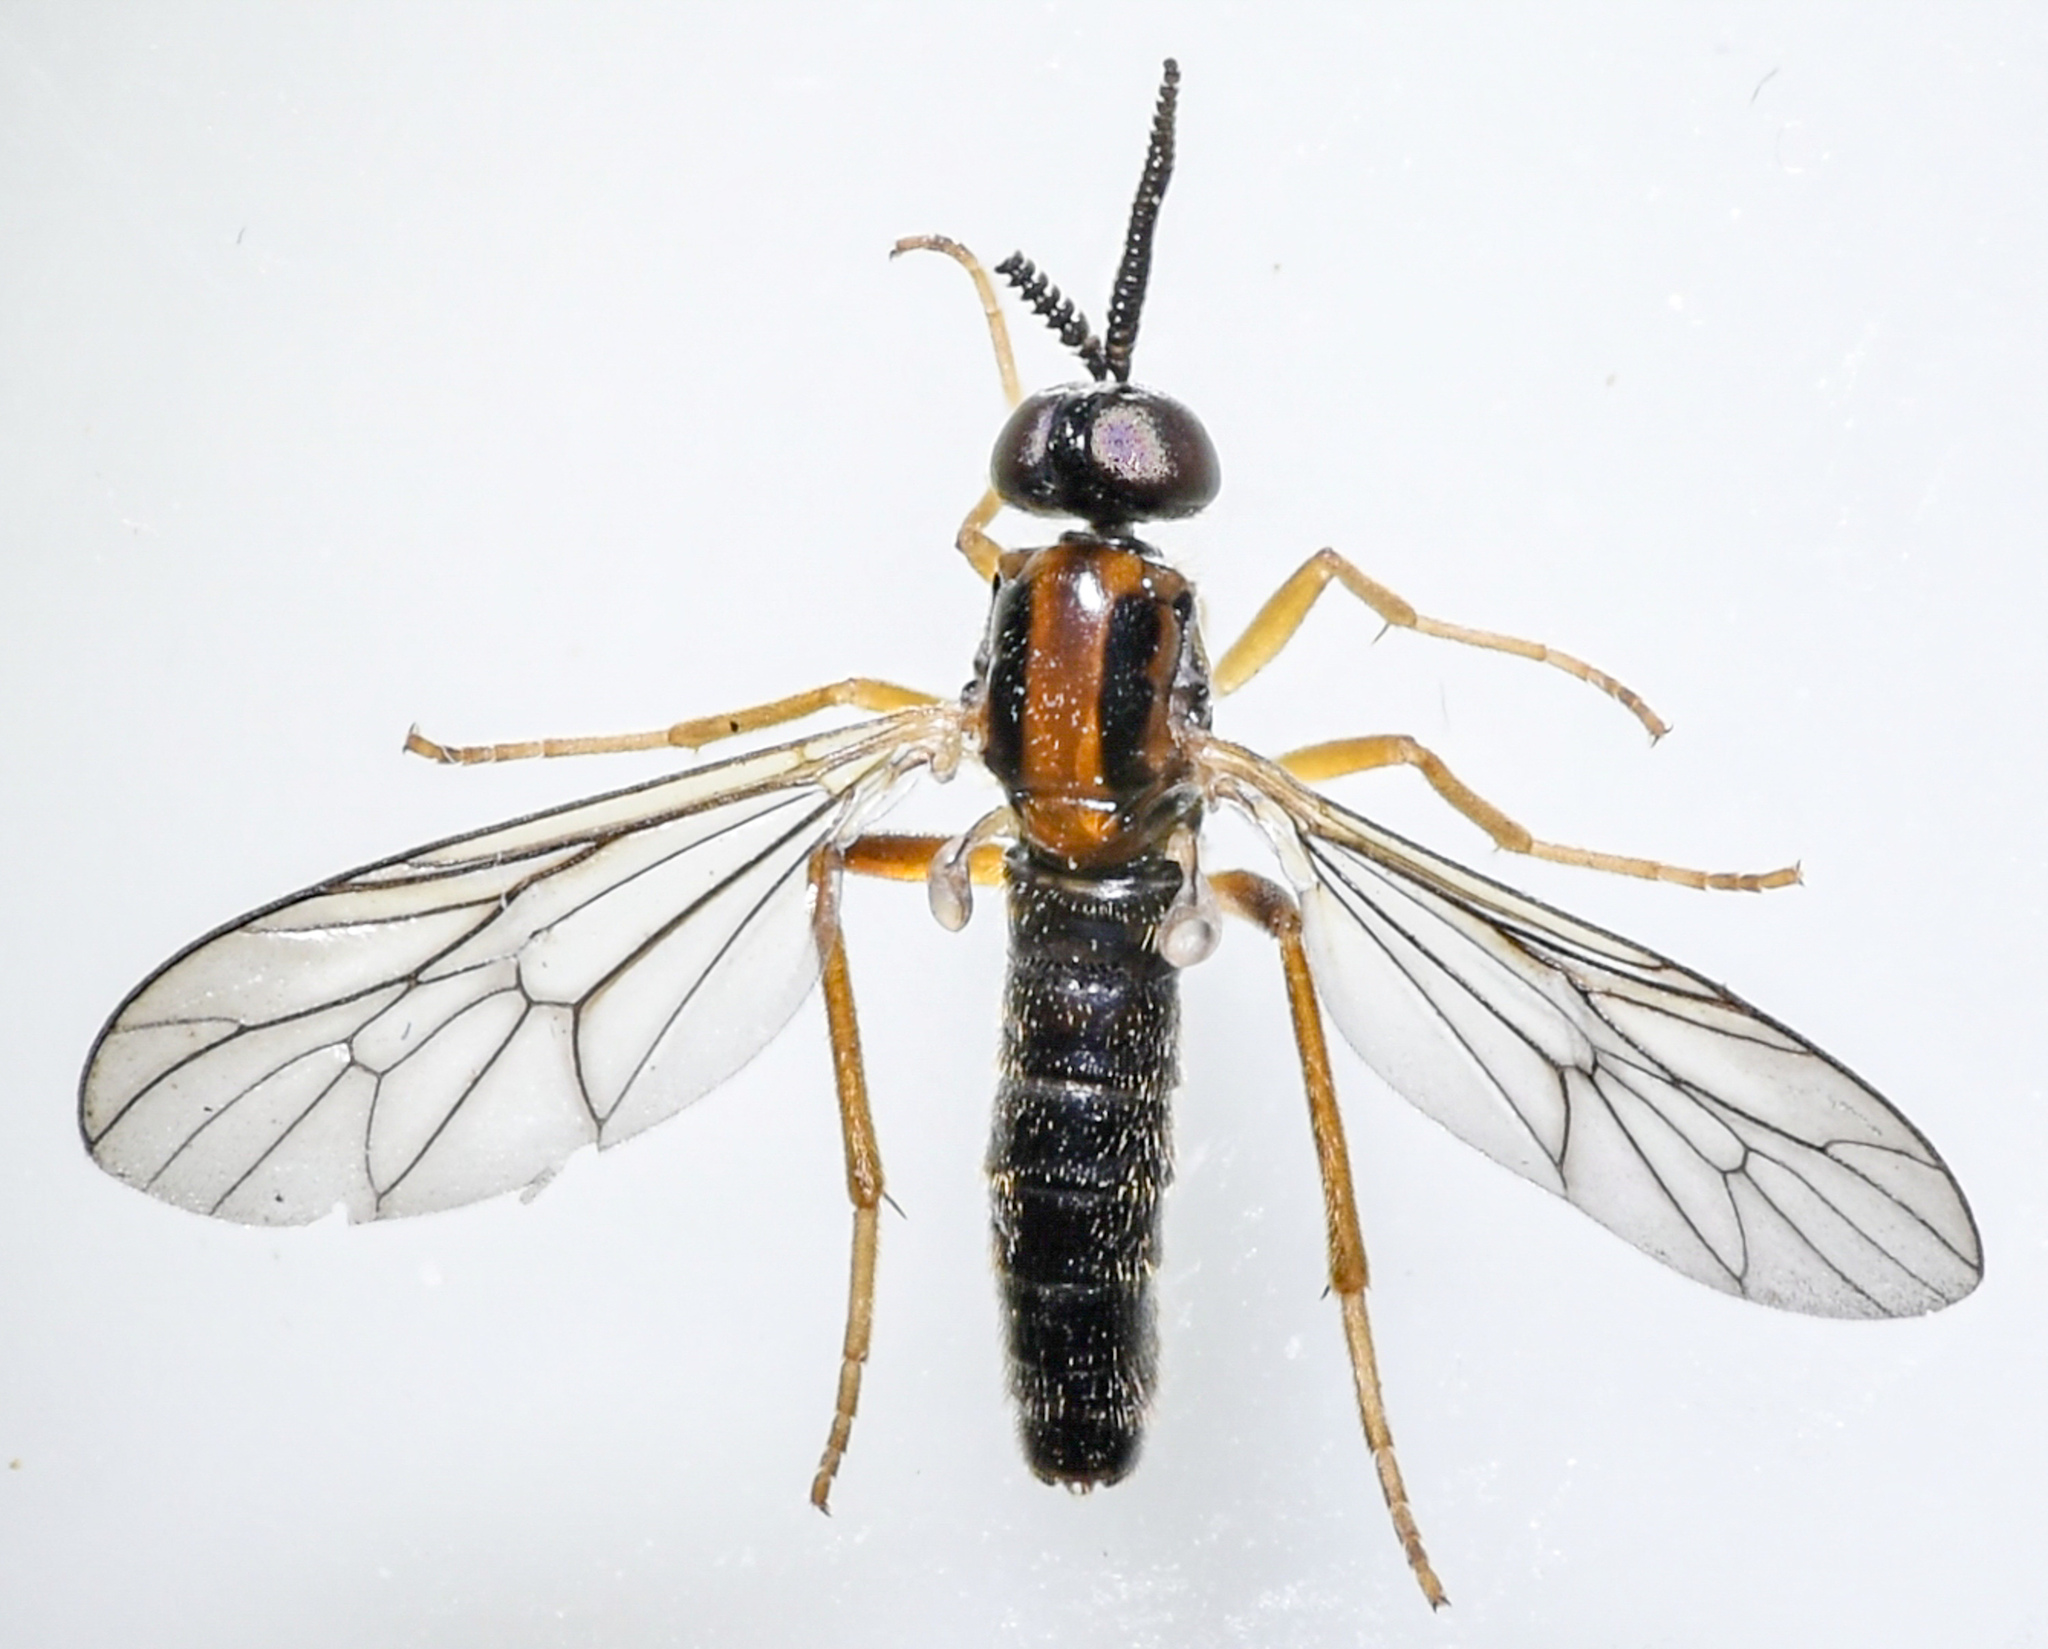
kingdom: Animalia
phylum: Arthropoda
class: Insecta
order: Diptera
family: Xylophagidae
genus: Rachicerus
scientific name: Rachicerus honestus
